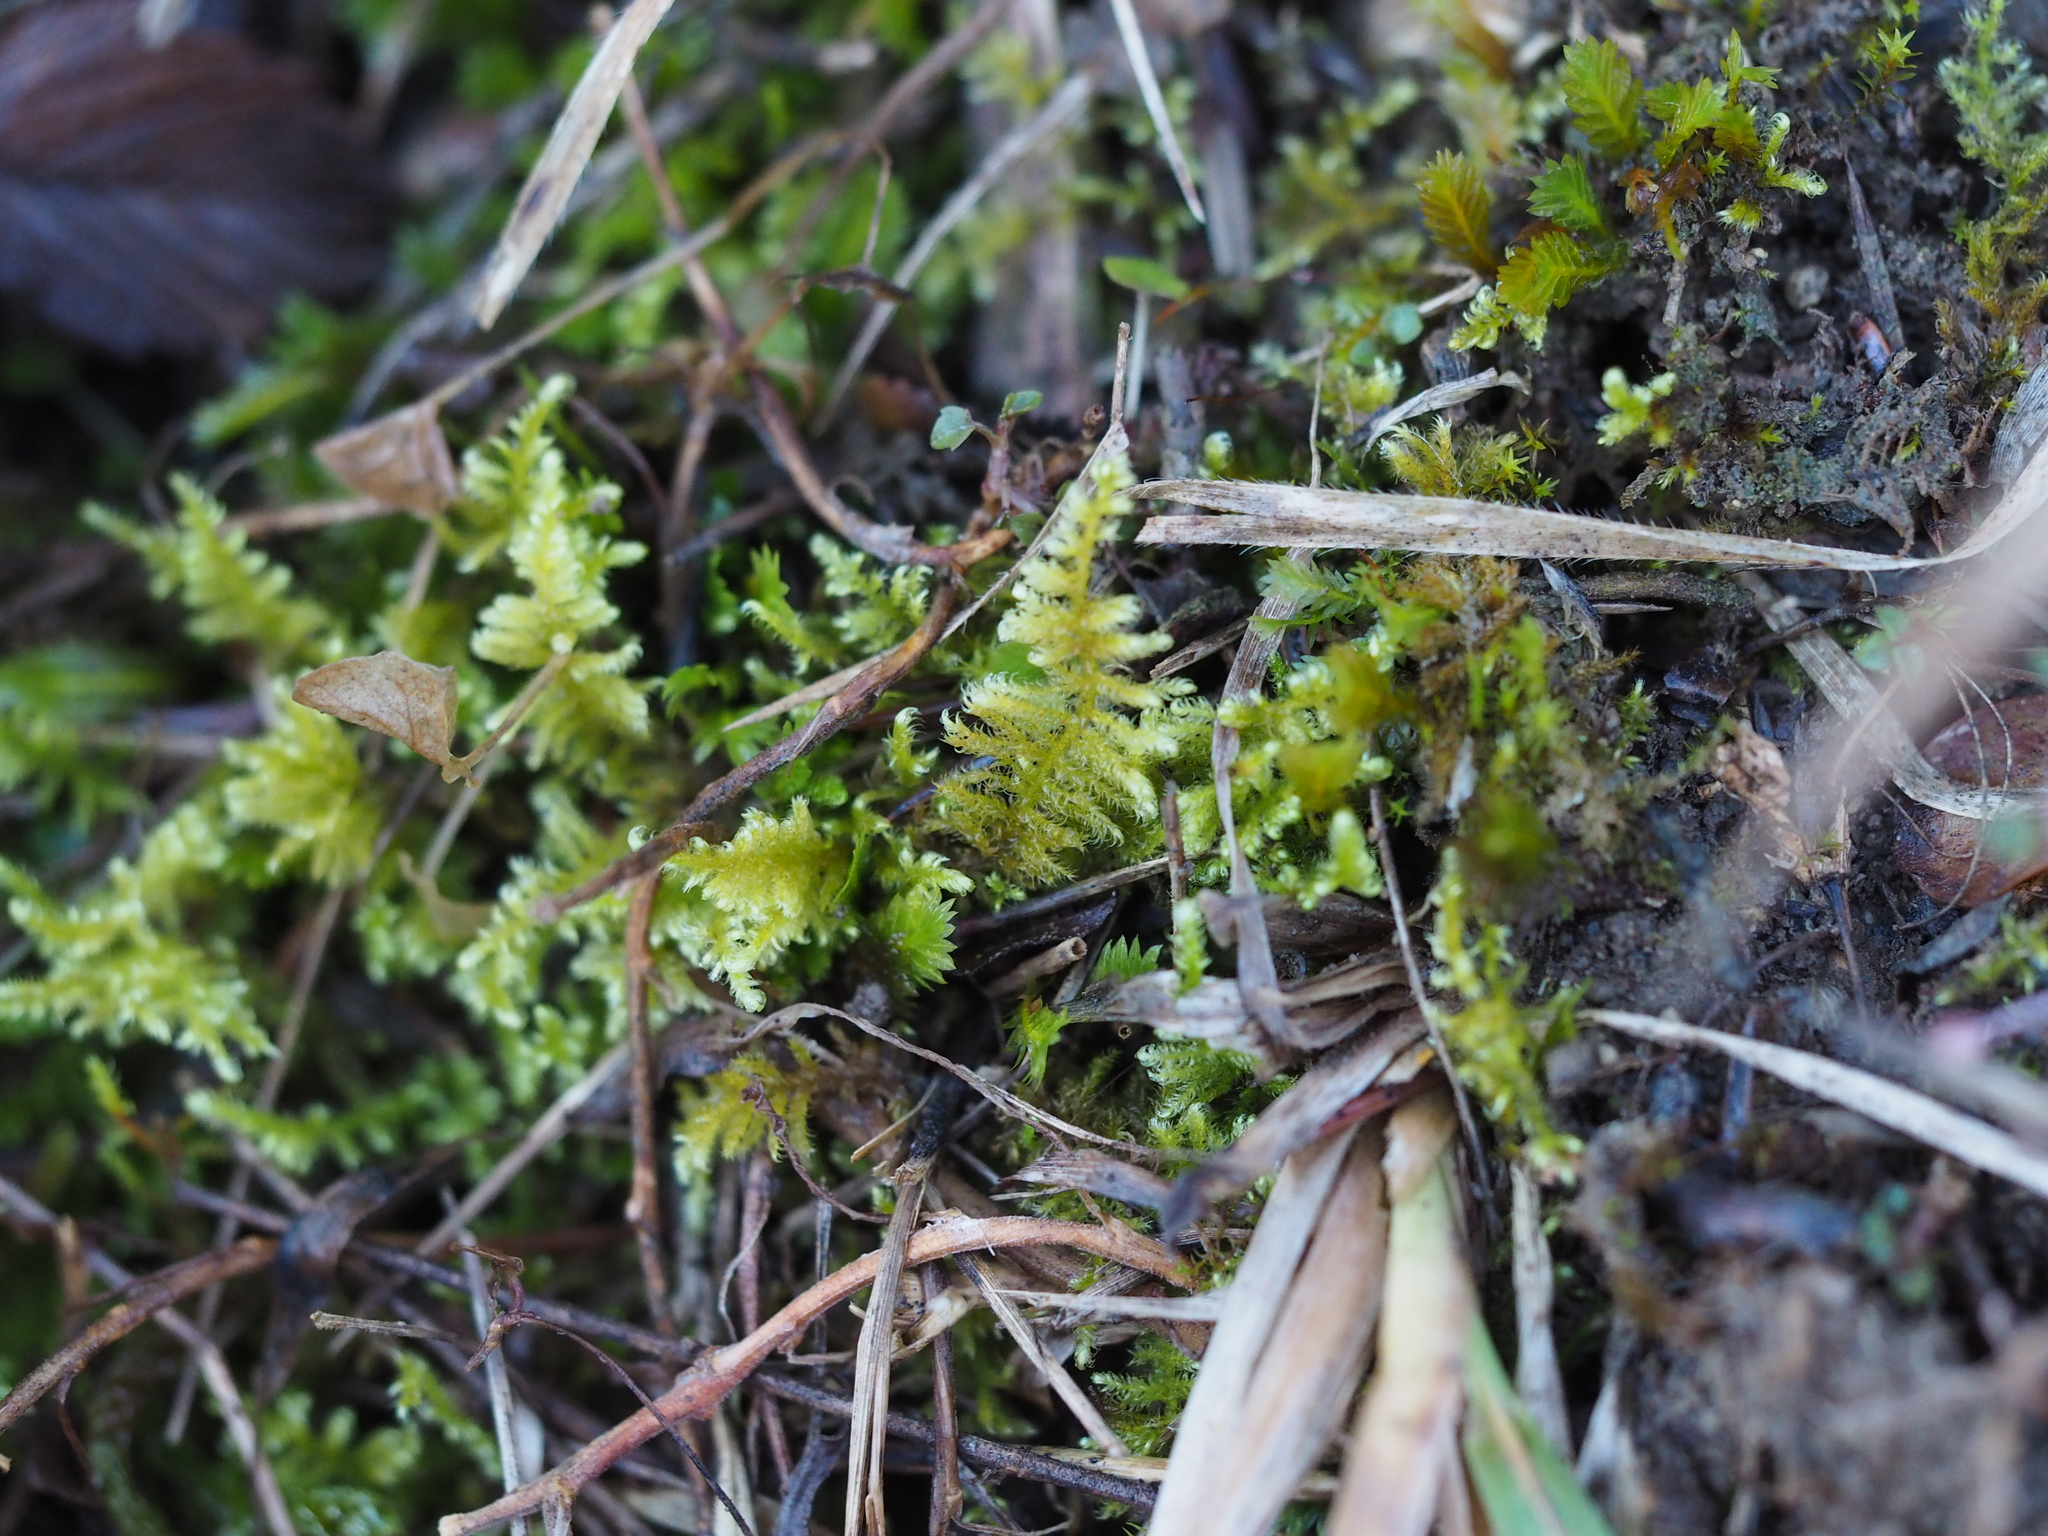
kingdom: Plantae
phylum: Bryophyta
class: Bryopsida
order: Hypnales
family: Myuriaceae
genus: Ctenidium
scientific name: Ctenidium molluscum
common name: Chalk comb-moss
